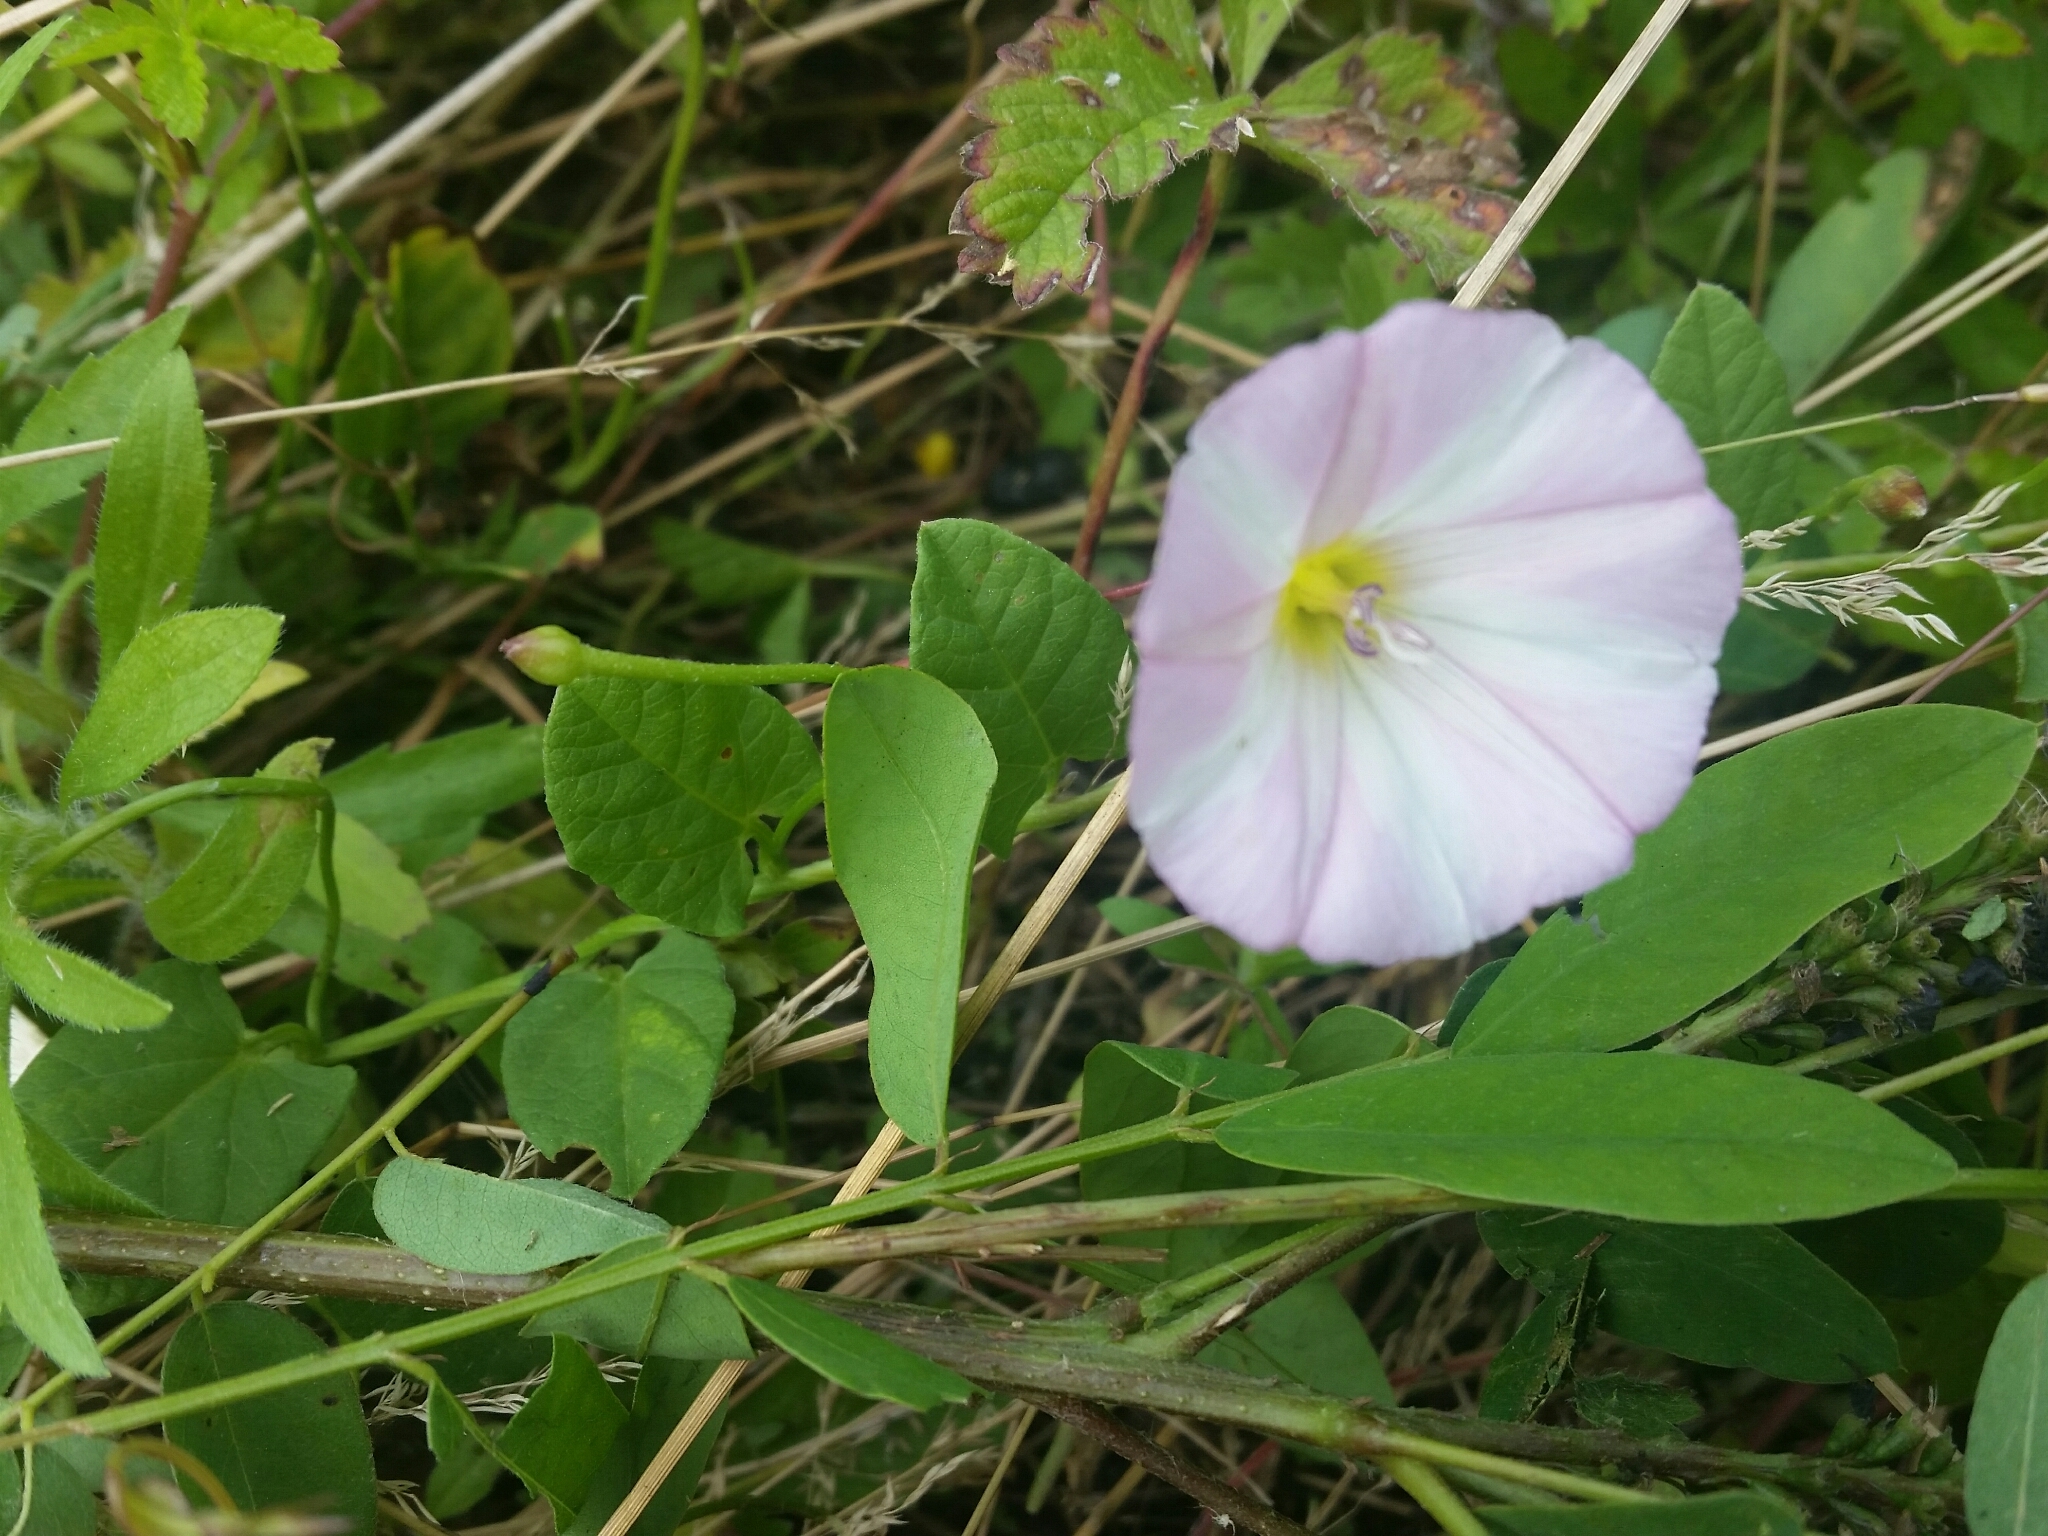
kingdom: Plantae
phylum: Tracheophyta
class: Magnoliopsida
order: Solanales
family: Convolvulaceae
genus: Convolvulus
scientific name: Convolvulus arvensis
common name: Field bindweed
